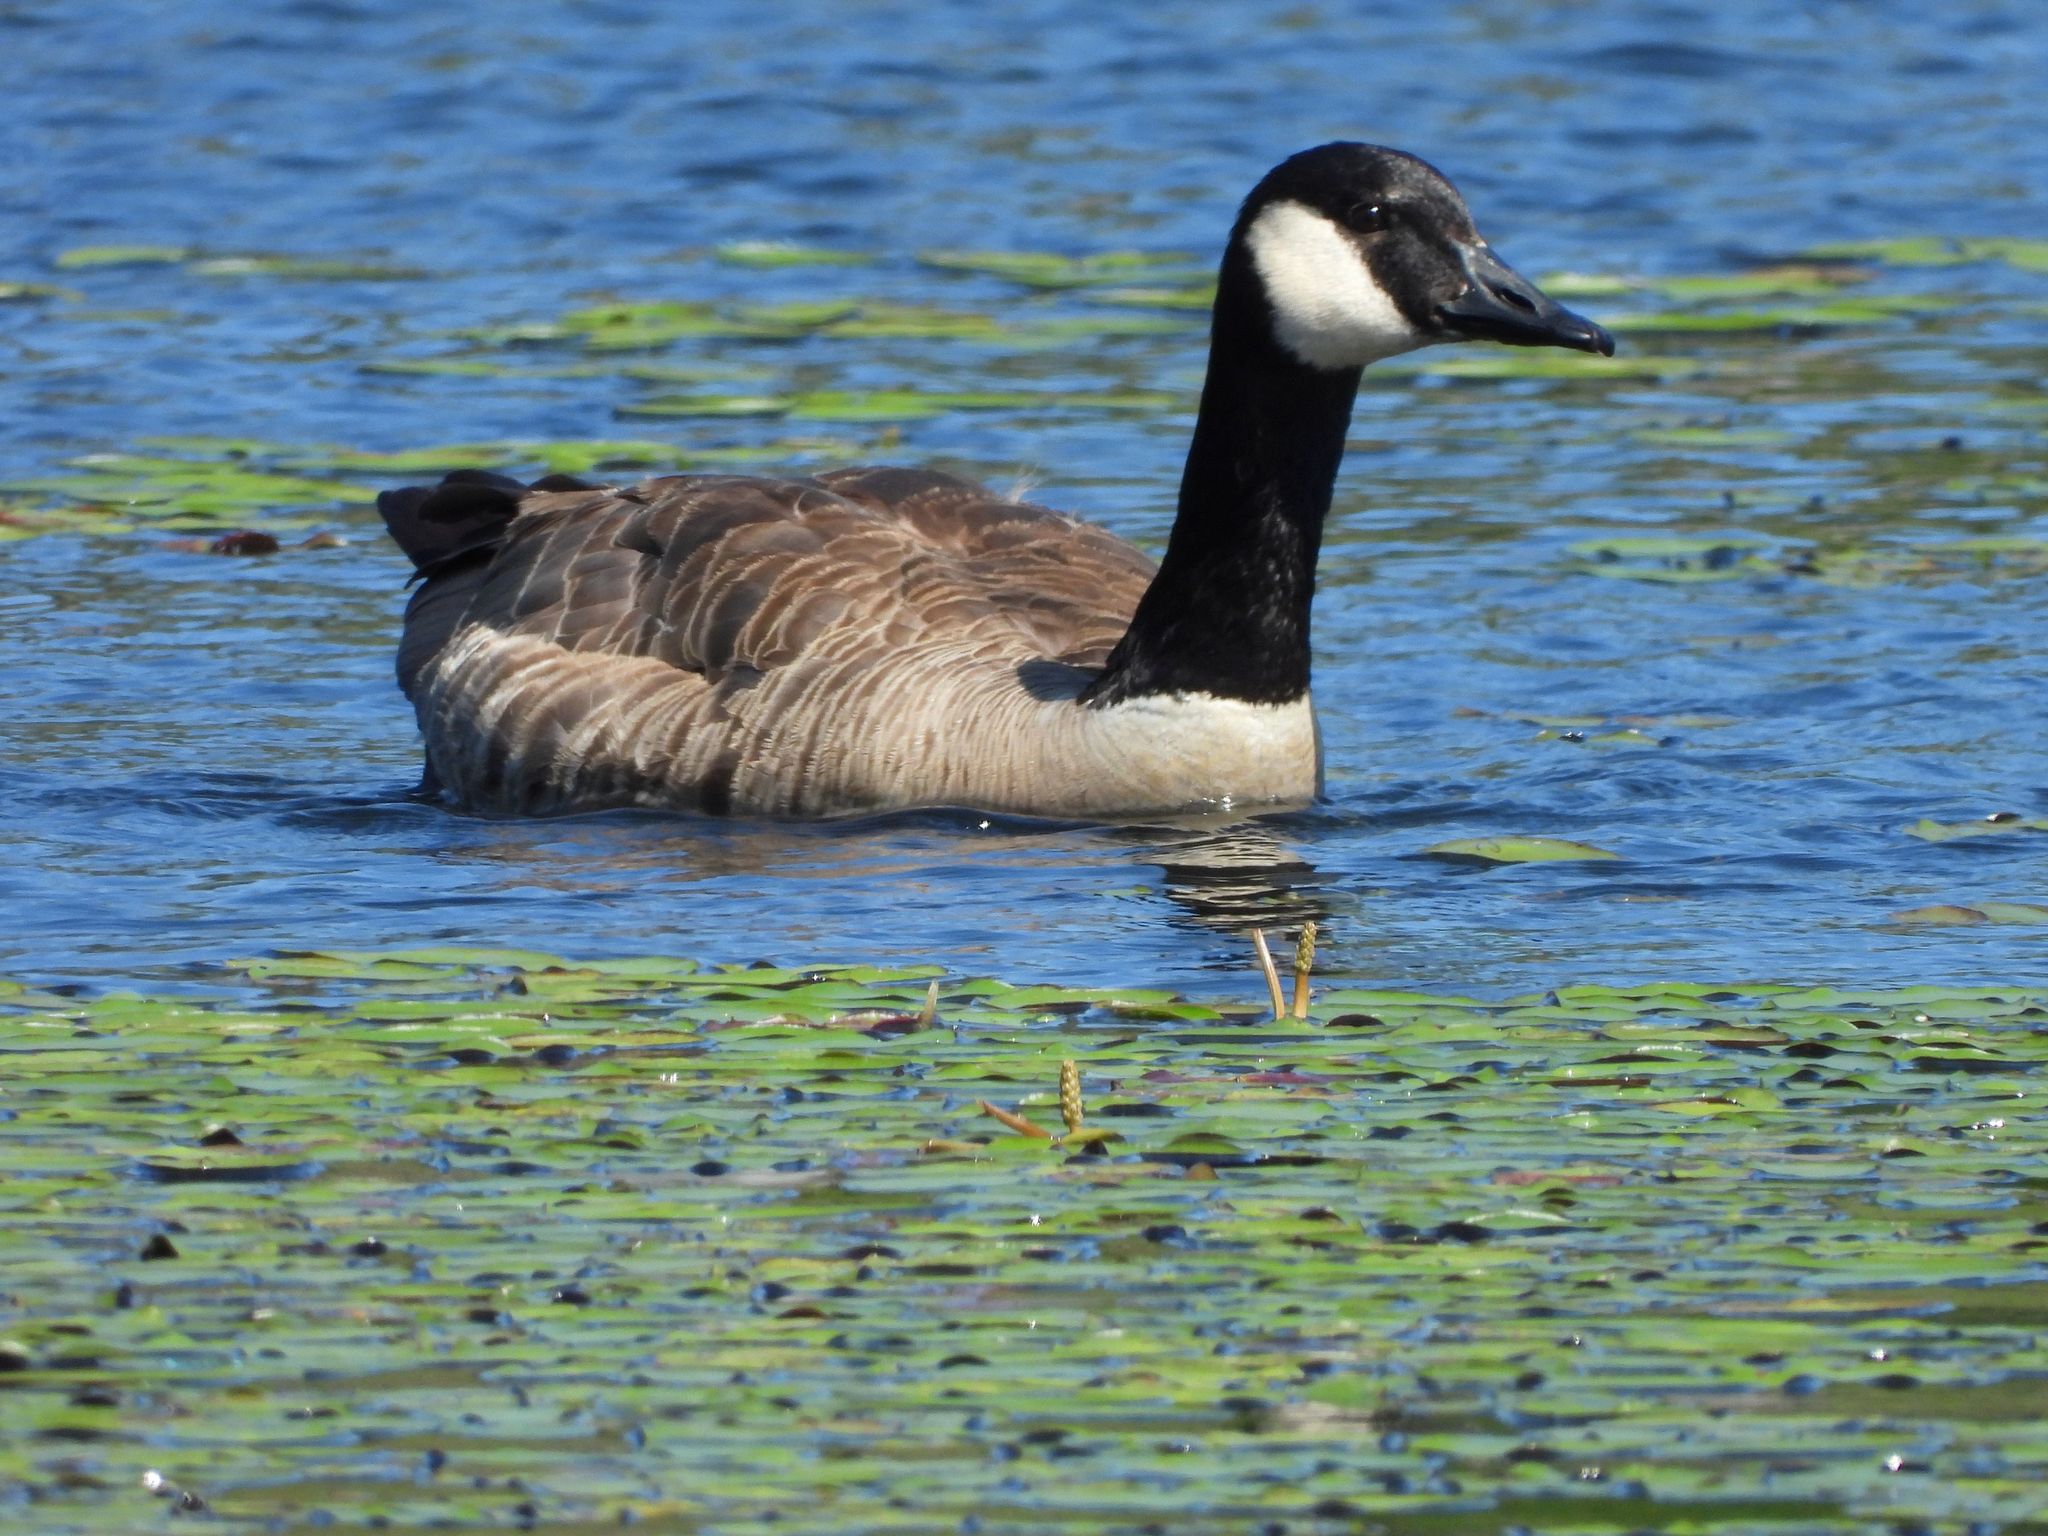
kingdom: Animalia
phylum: Chordata
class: Aves
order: Anseriformes
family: Anatidae
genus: Branta
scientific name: Branta canadensis
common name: Canada goose
